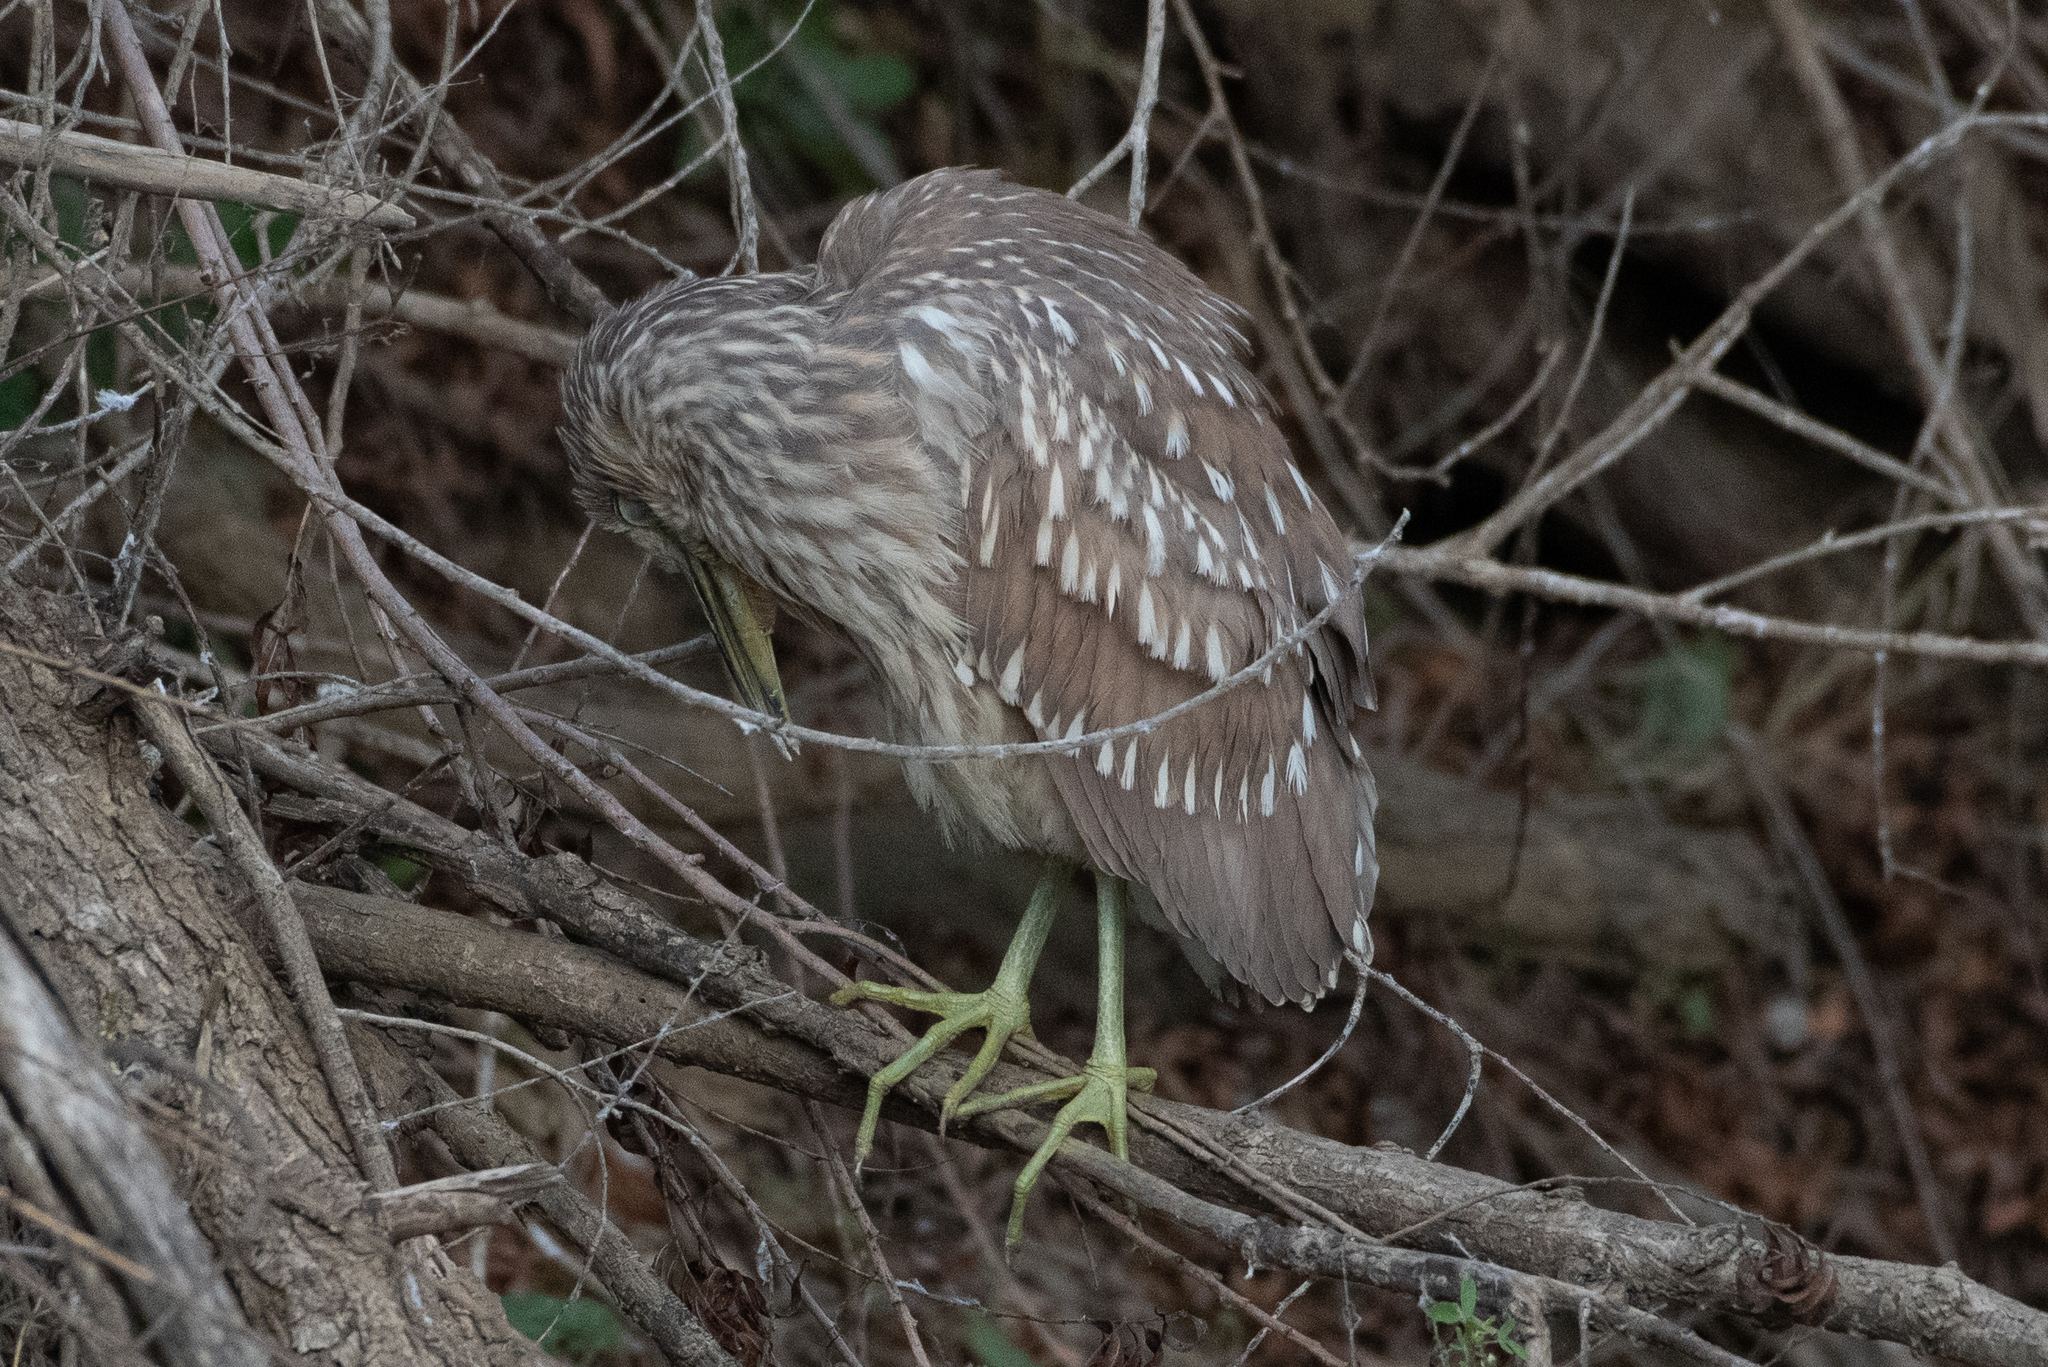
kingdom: Animalia
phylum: Chordata
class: Aves
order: Pelecaniformes
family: Ardeidae
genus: Nycticorax
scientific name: Nycticorax nycticorax
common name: Black-crowned night heron
